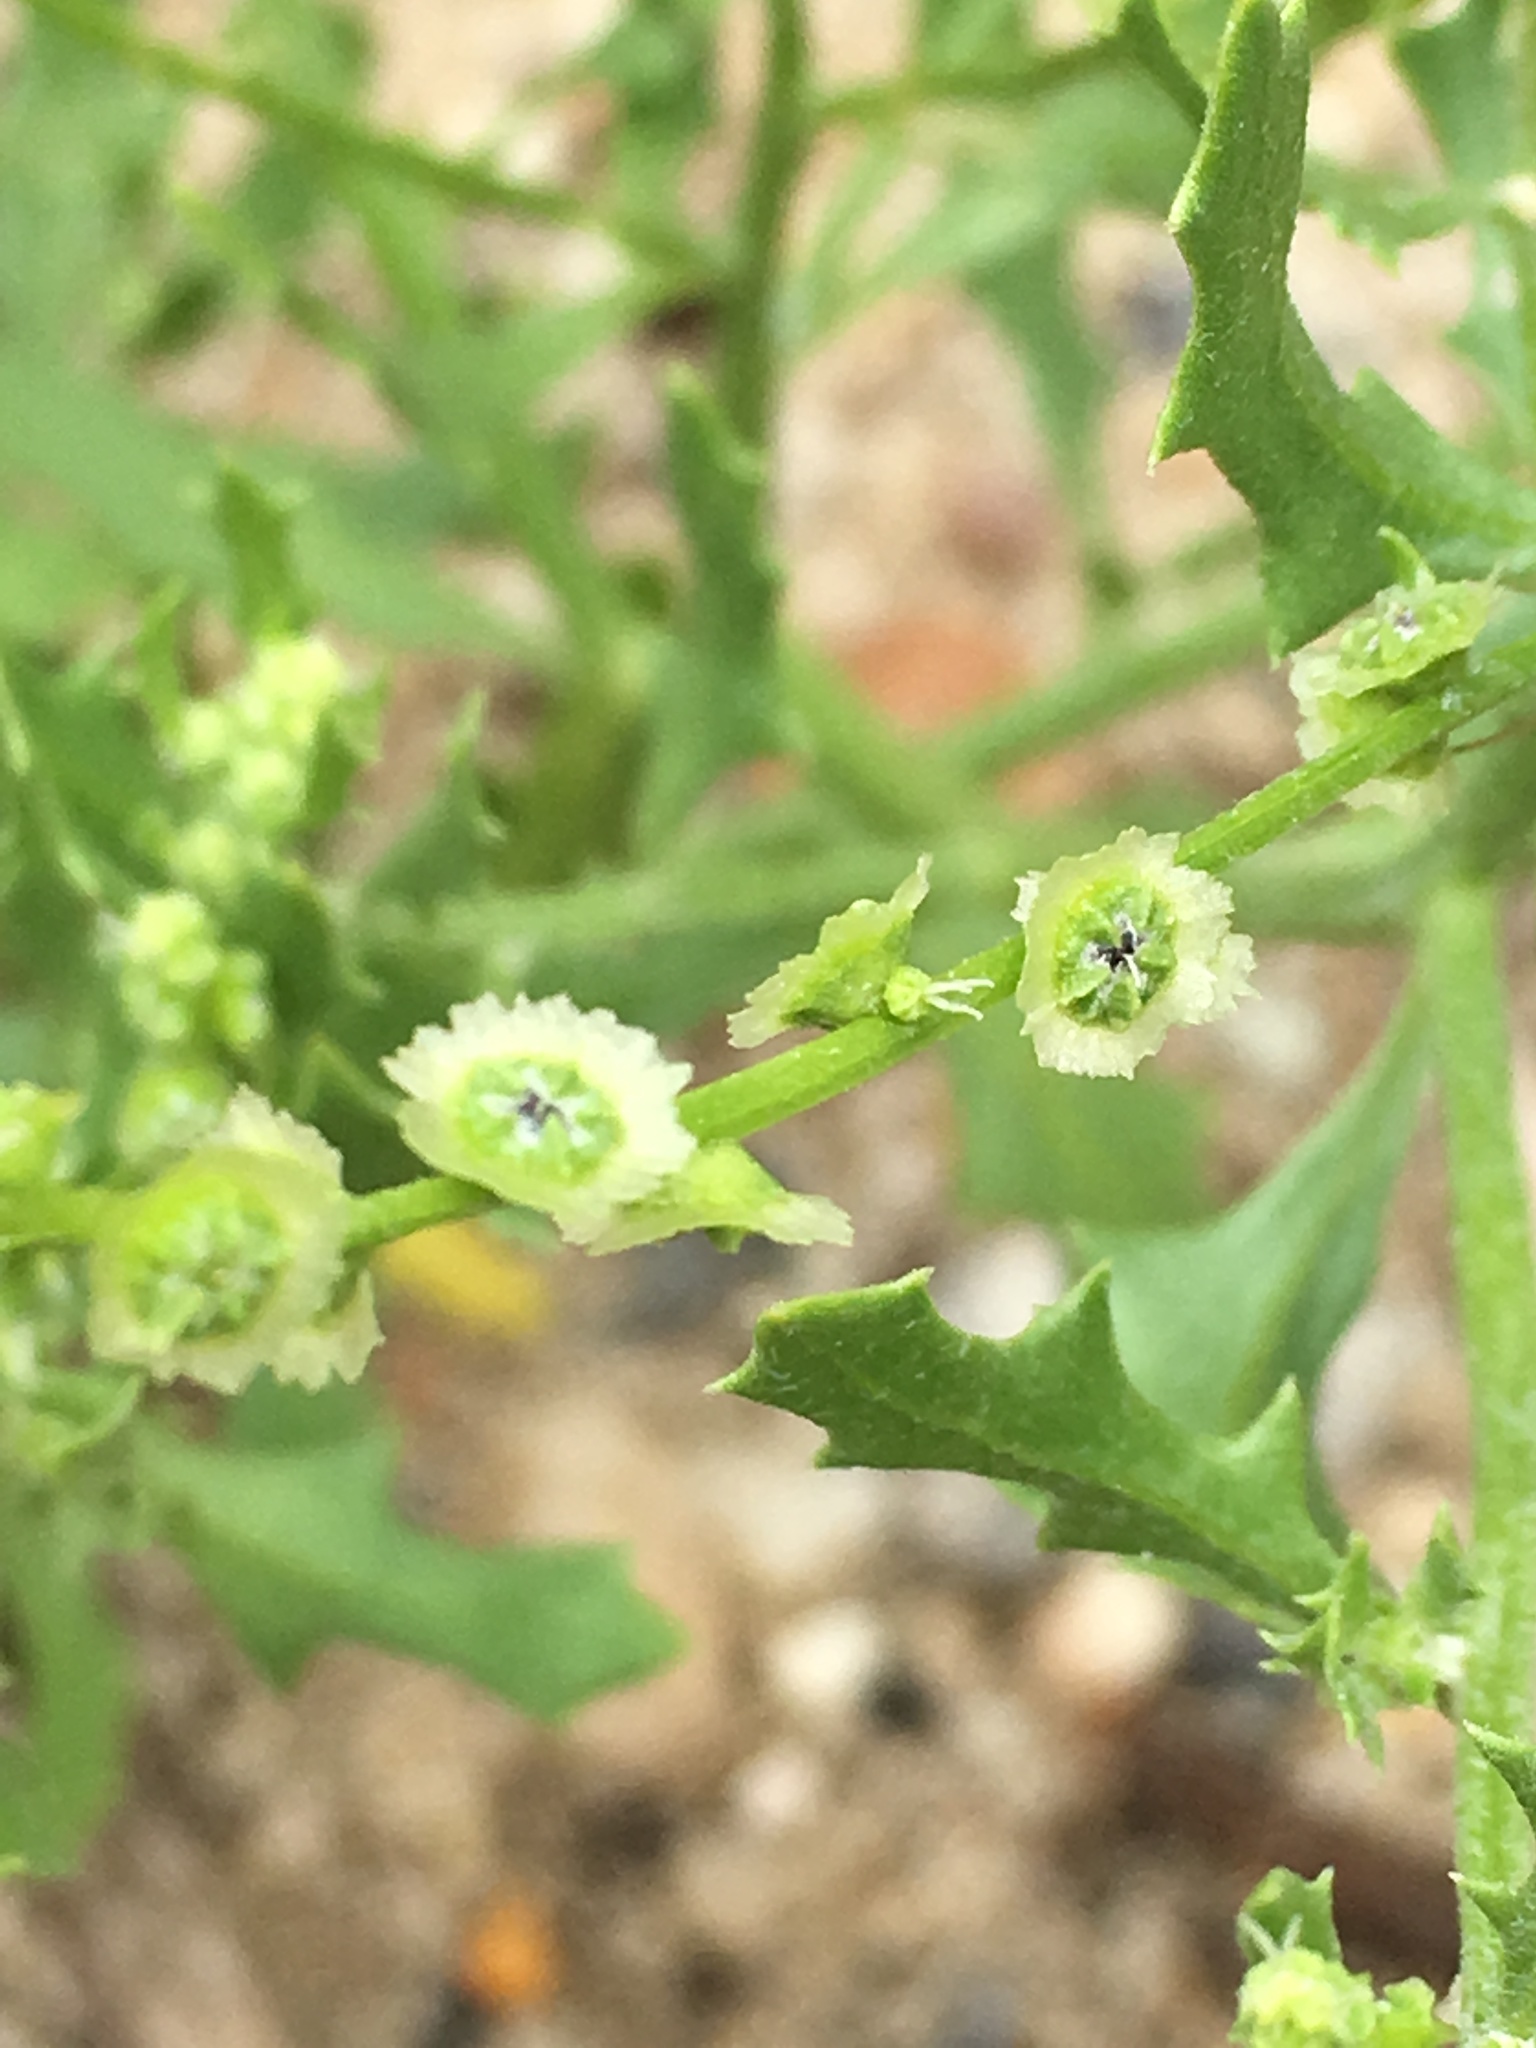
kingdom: Plantae
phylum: Tracheophyta
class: Magnoliopsida
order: Caryophyllales
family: Amaranthaceae
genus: Dysphania
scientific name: Dysphania atriplicifolia
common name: Plains tumbleweed
